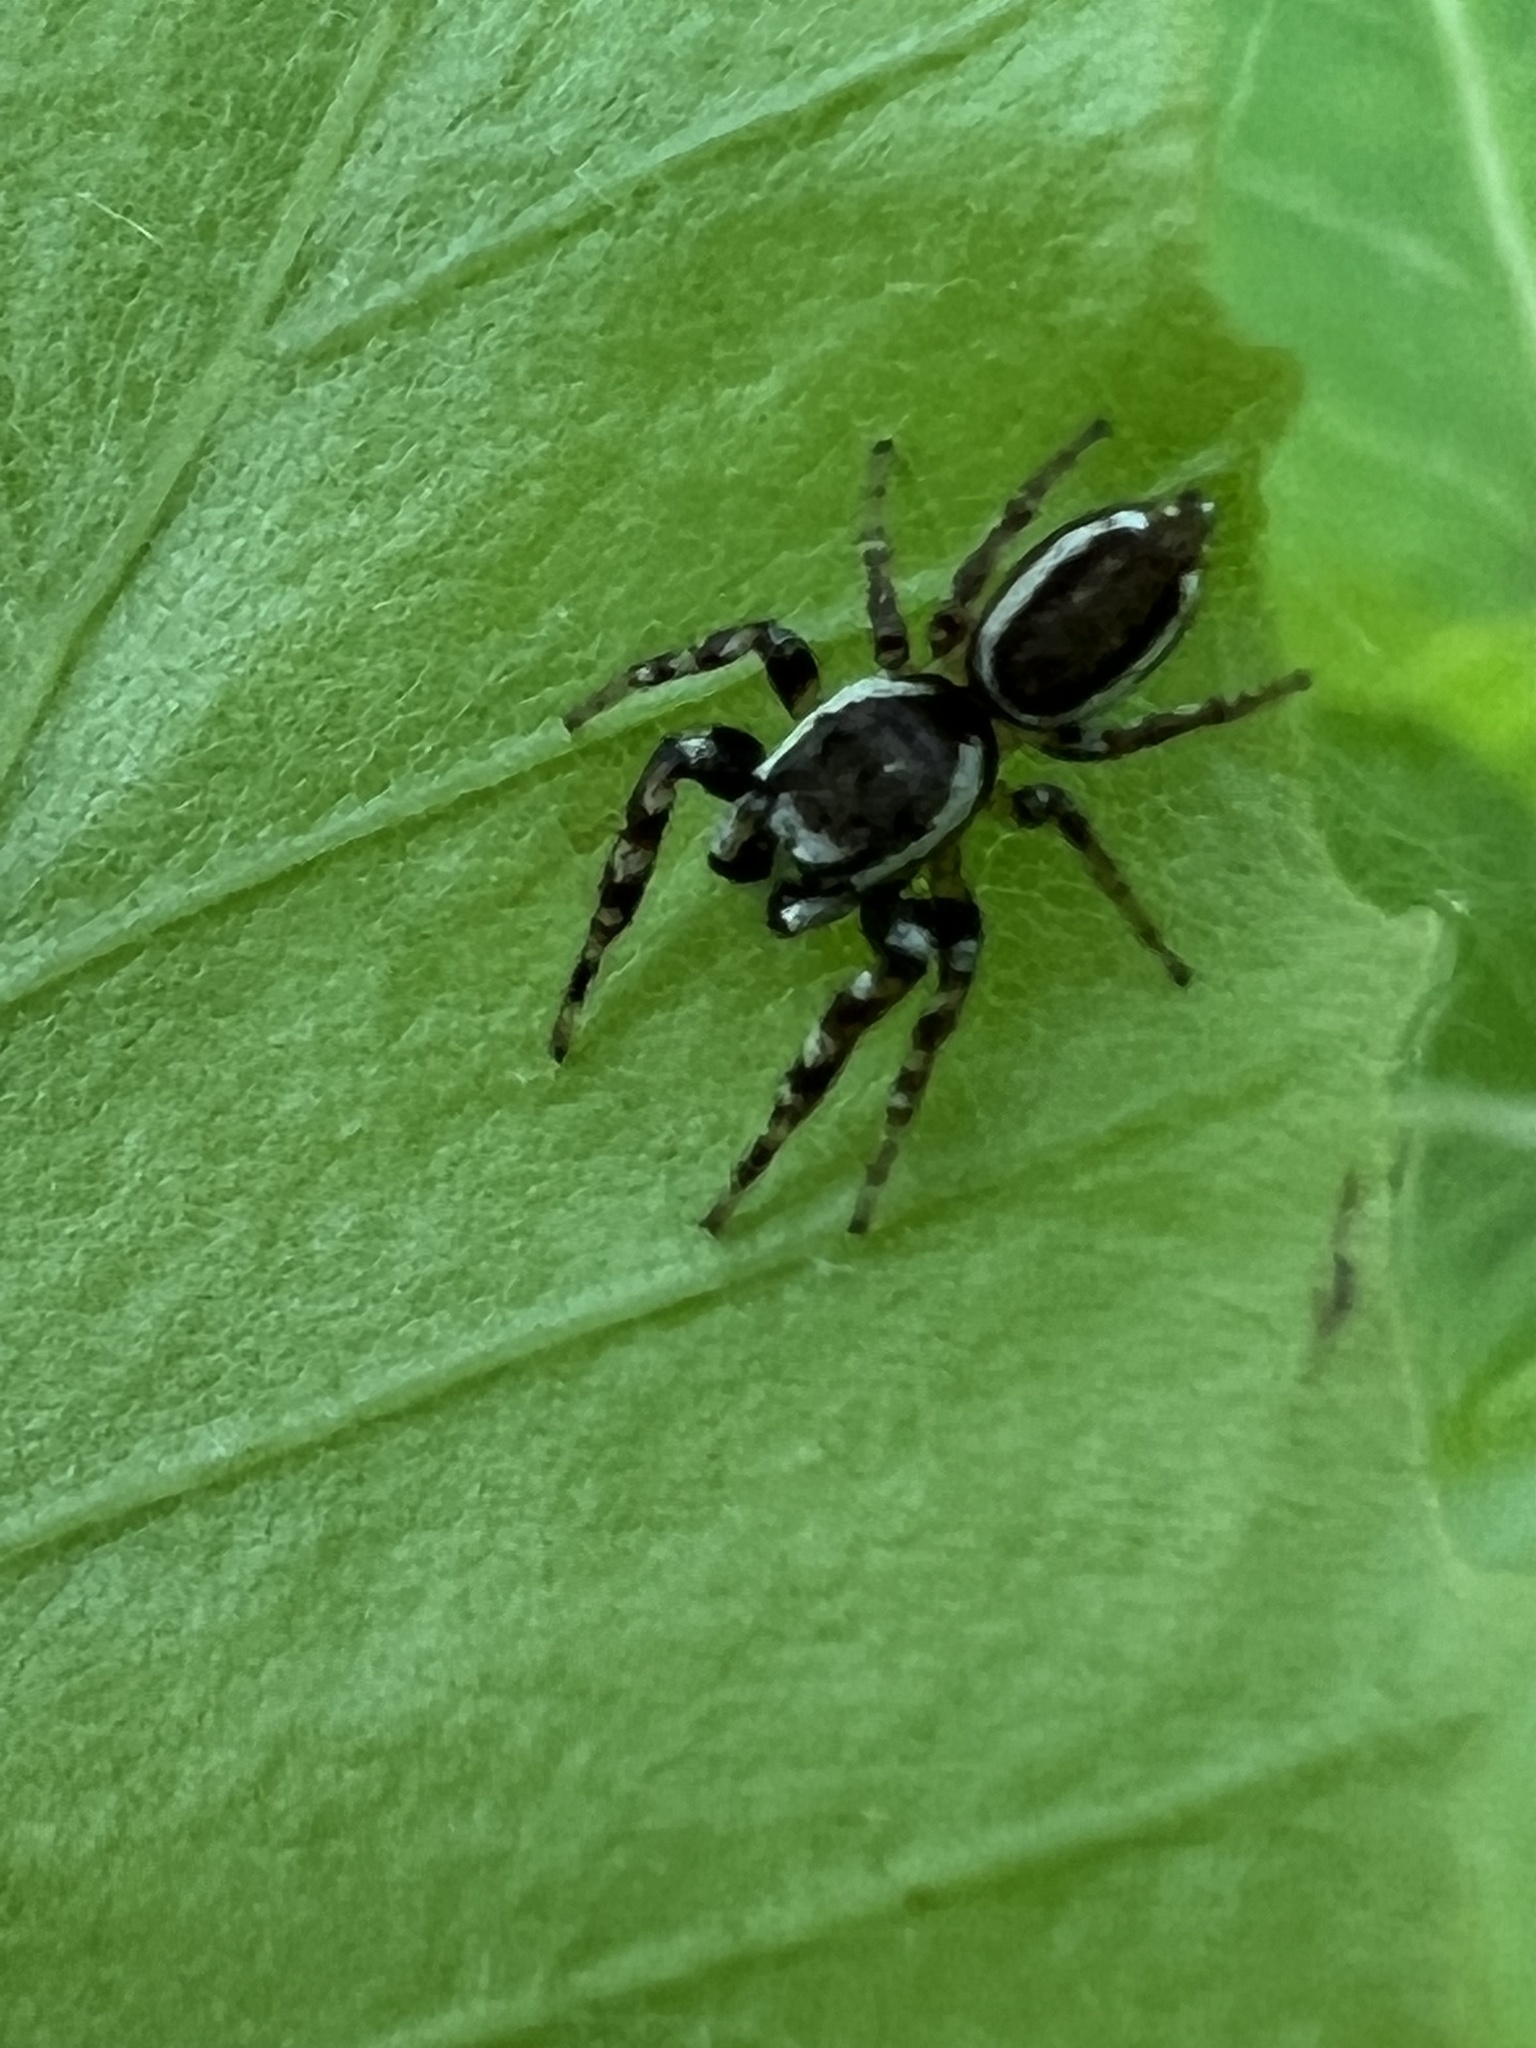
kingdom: Animalia
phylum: Arthropoda
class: Arachnida
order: Araneae
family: Salticidae
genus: Pelegrina
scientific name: Pelegrina proterva
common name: Common white-cheeked jumping spider
